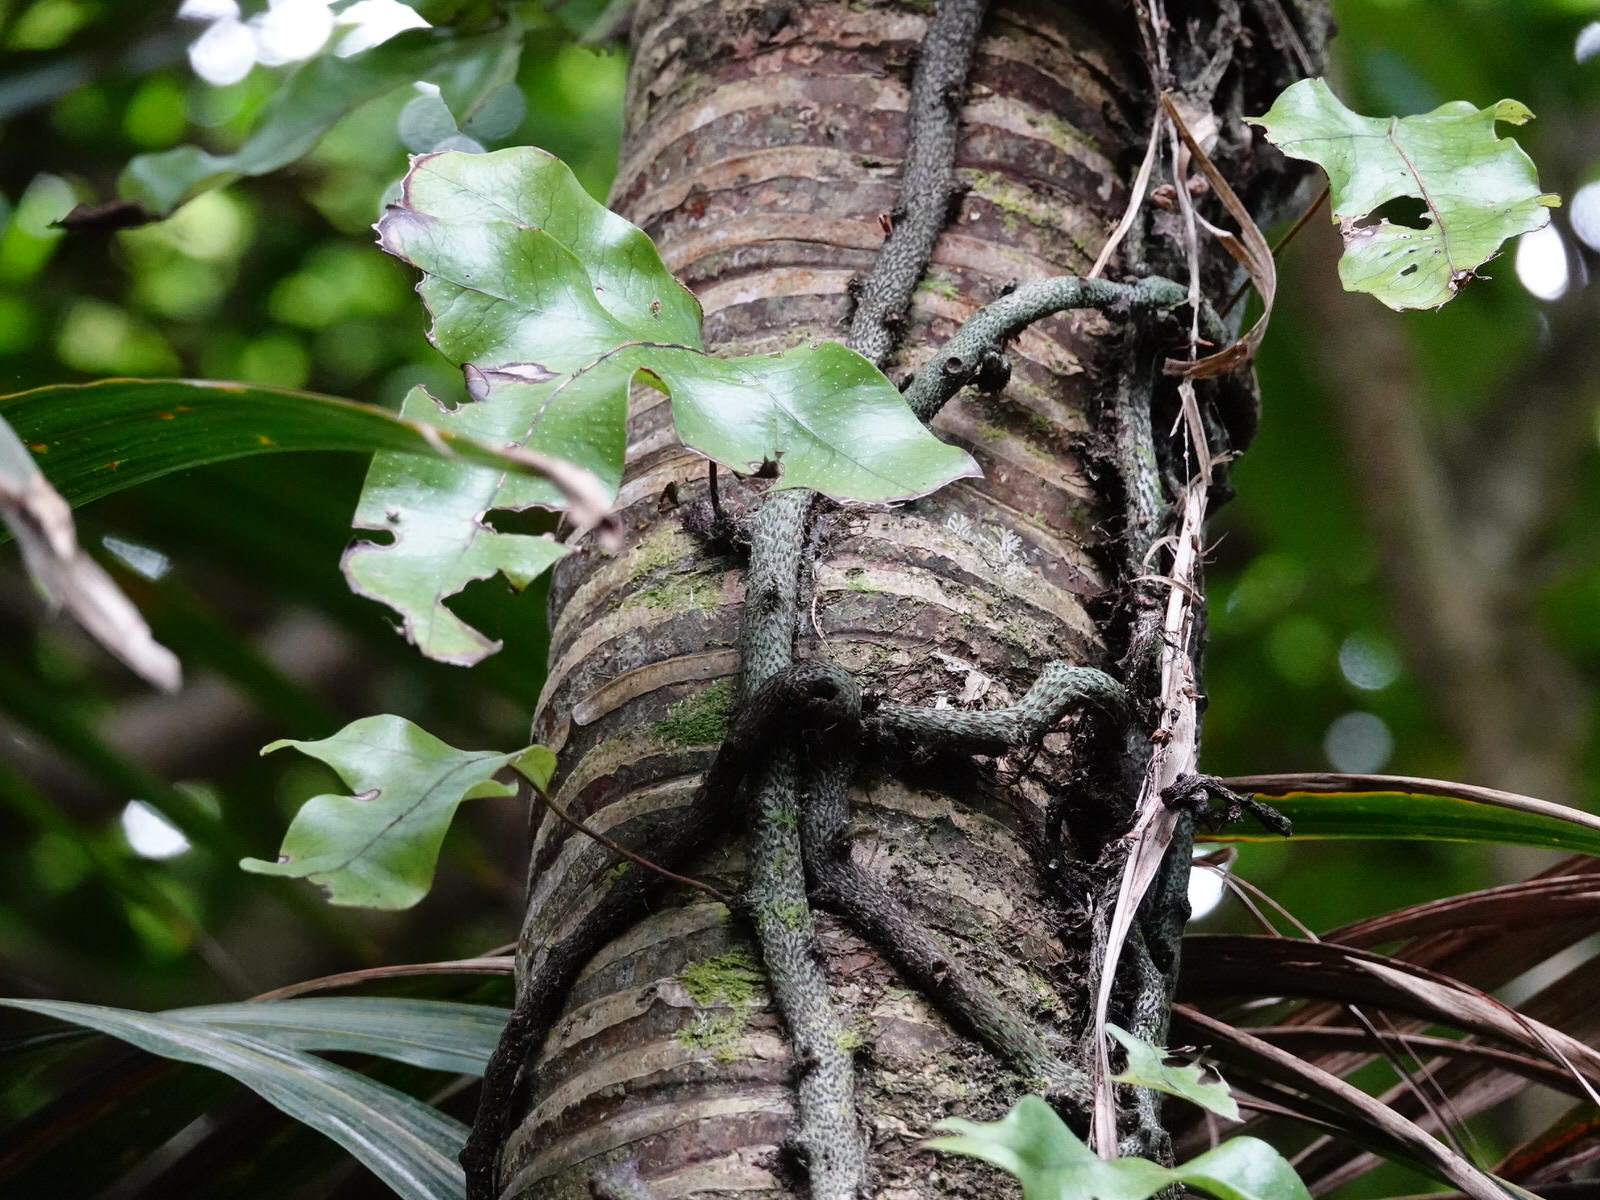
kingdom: Plantae
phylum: Tracheophyta
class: Polypodiopsida
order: Polypodiales
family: Polypodiaceae
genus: Lecanopteris
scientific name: Lecanopteris pustulata
